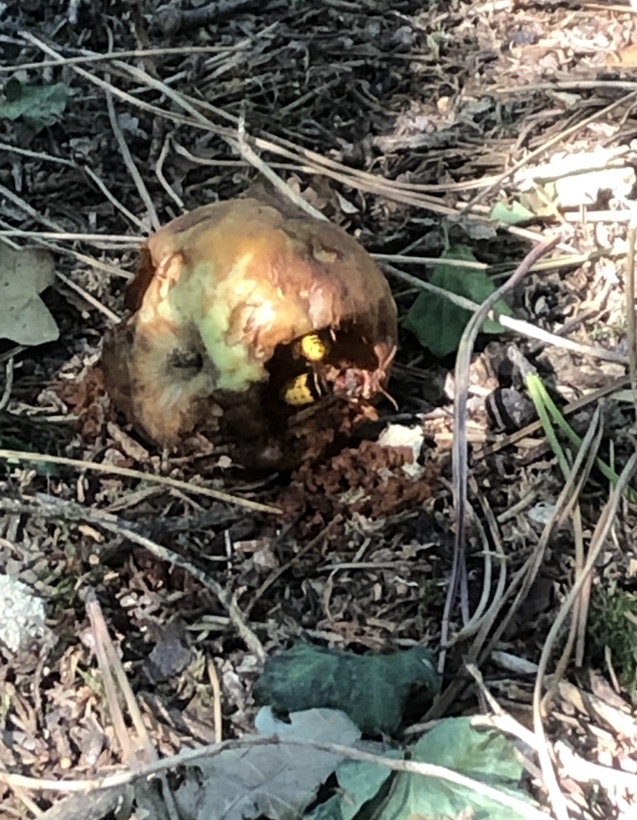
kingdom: Animalia
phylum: Arthropoda
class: Insecta
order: Hymenoptera
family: Vespidae
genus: Vespa
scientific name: Vespa crabro
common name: Hornet
